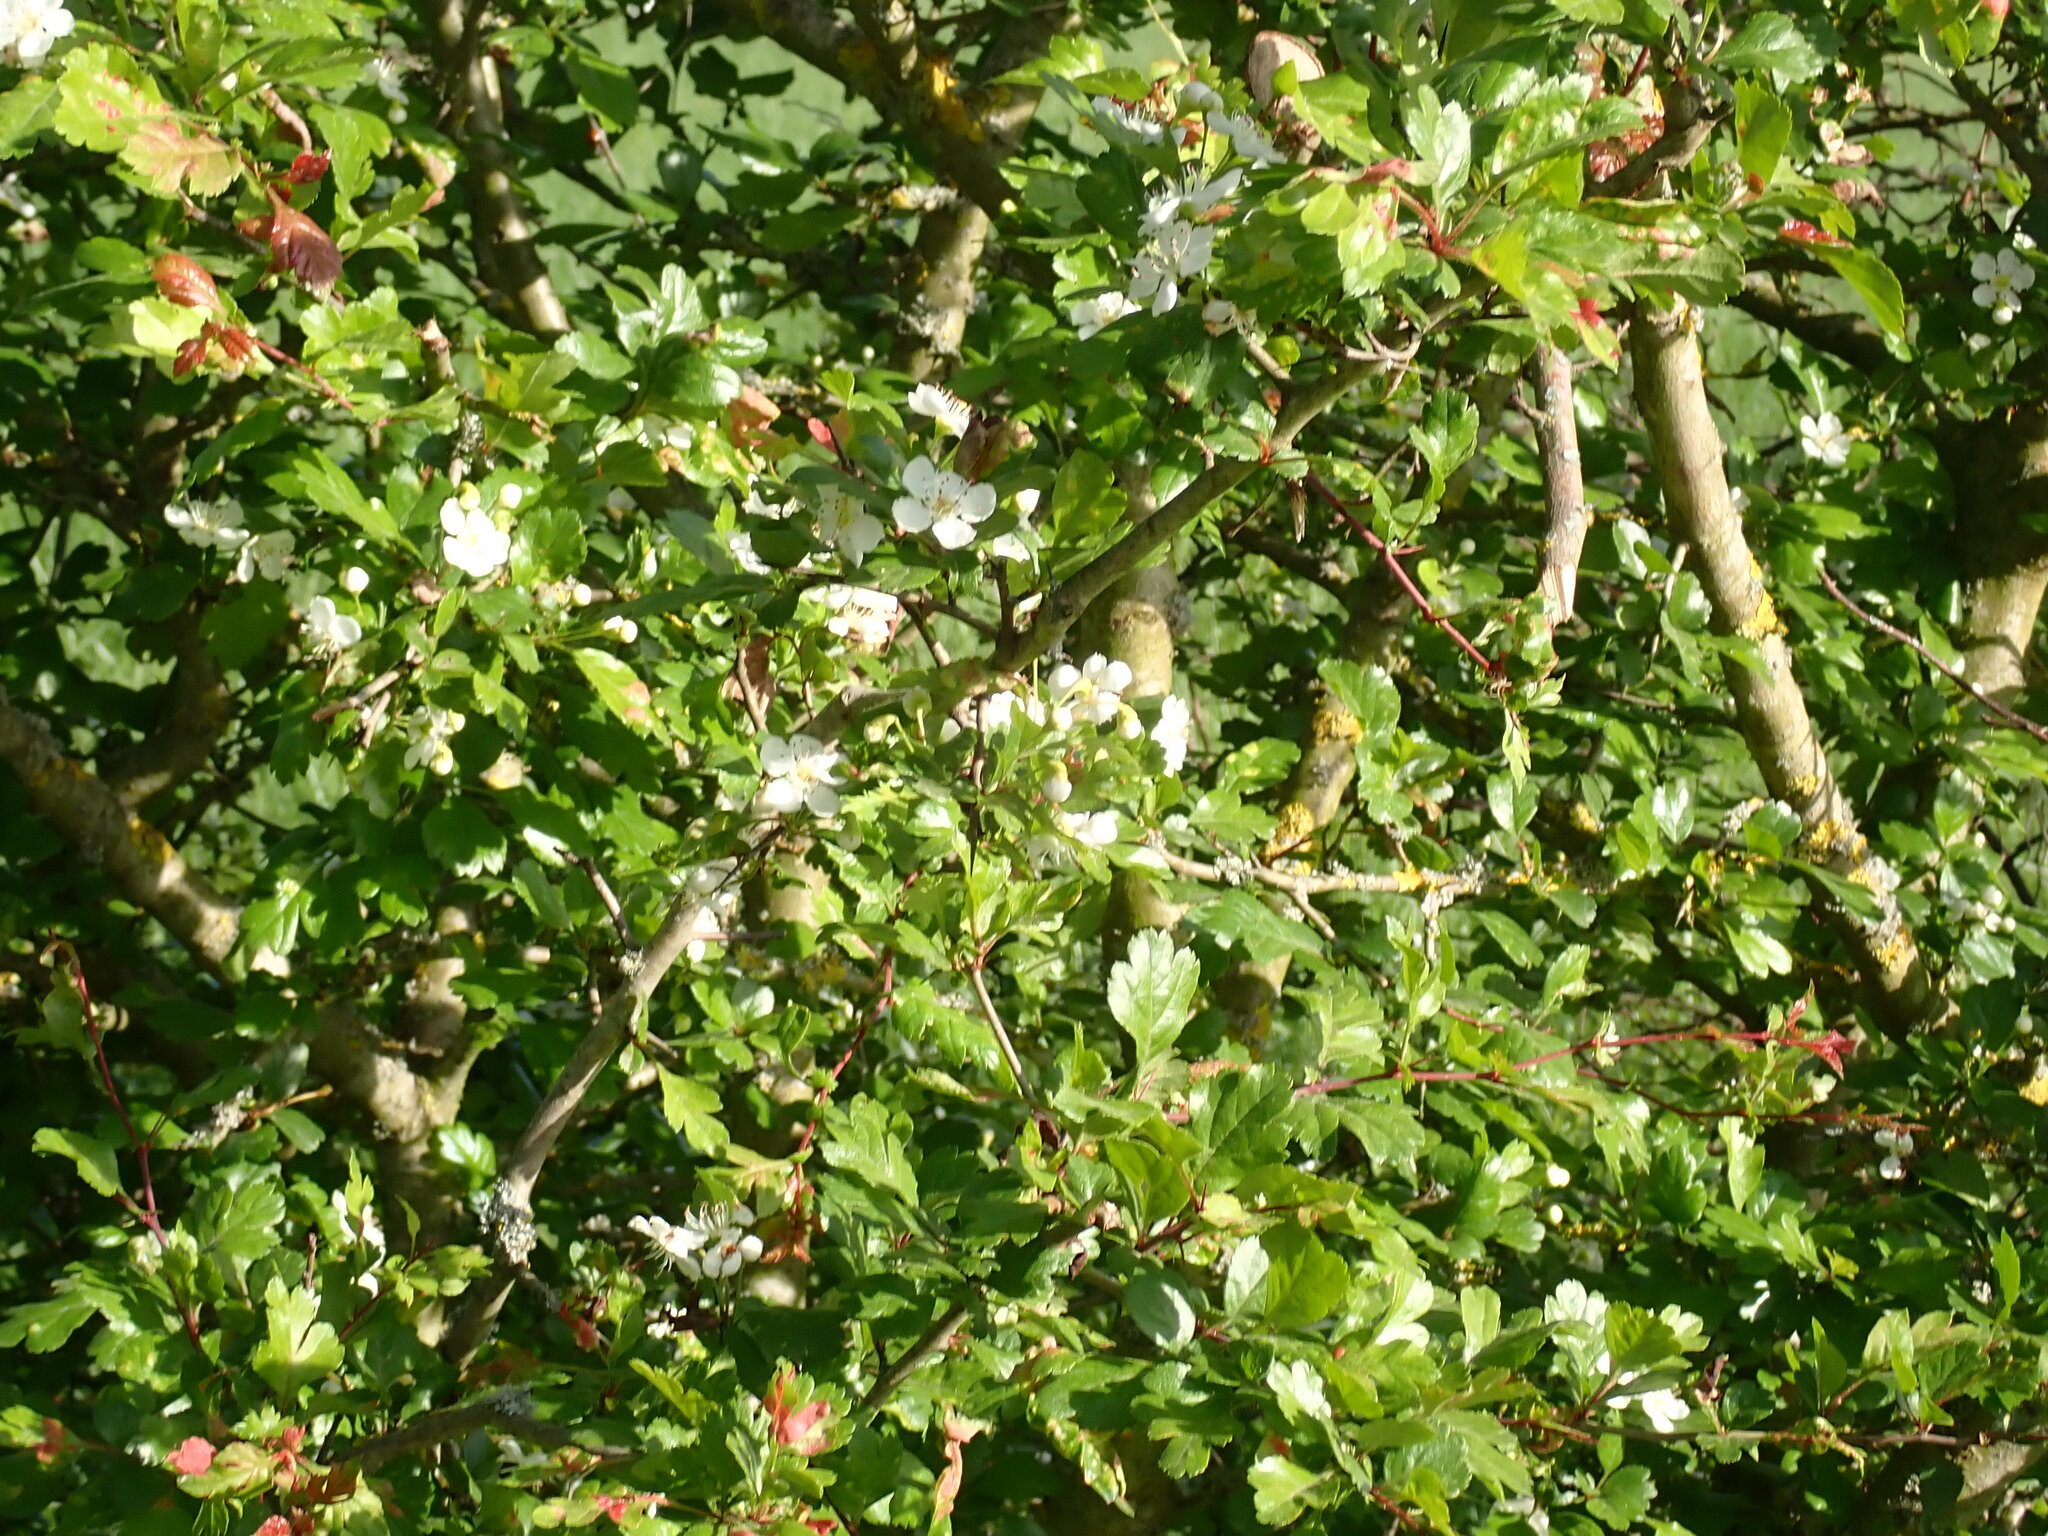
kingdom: Plantae
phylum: Tracheophyta
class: Magnoliopsida
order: Rosales
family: Rosaceae
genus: Crataegus
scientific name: Crataegus laevigata
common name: Midland hawthorn
